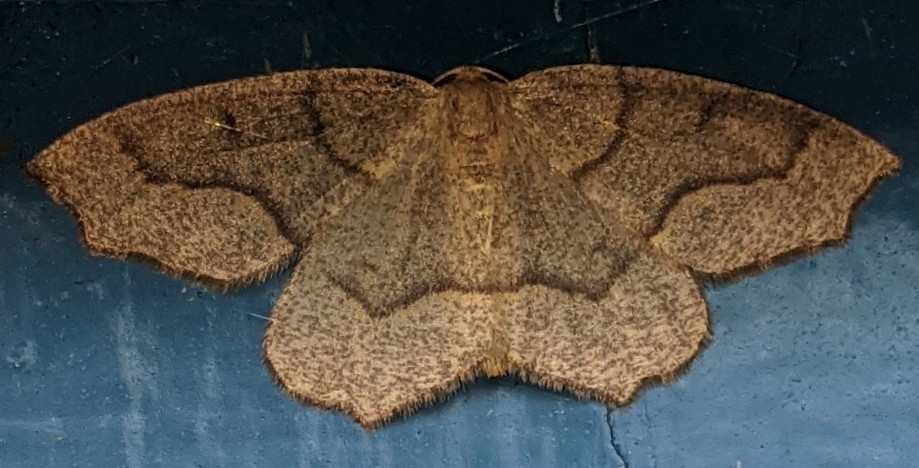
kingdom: Animalia
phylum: Arthropoda
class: Insecta
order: Lepidoptera
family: Geometridae
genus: Lambdina
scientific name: Lambdina fiscellaria
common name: Hemlock looper
